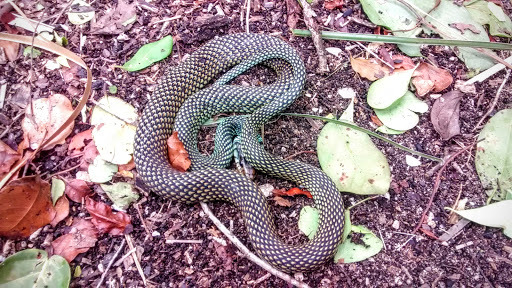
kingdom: Animalia
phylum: Chordata
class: Squamata
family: Colubridae
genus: Drymobius
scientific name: Drymobius margaritiferus
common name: Central american speckled racer
